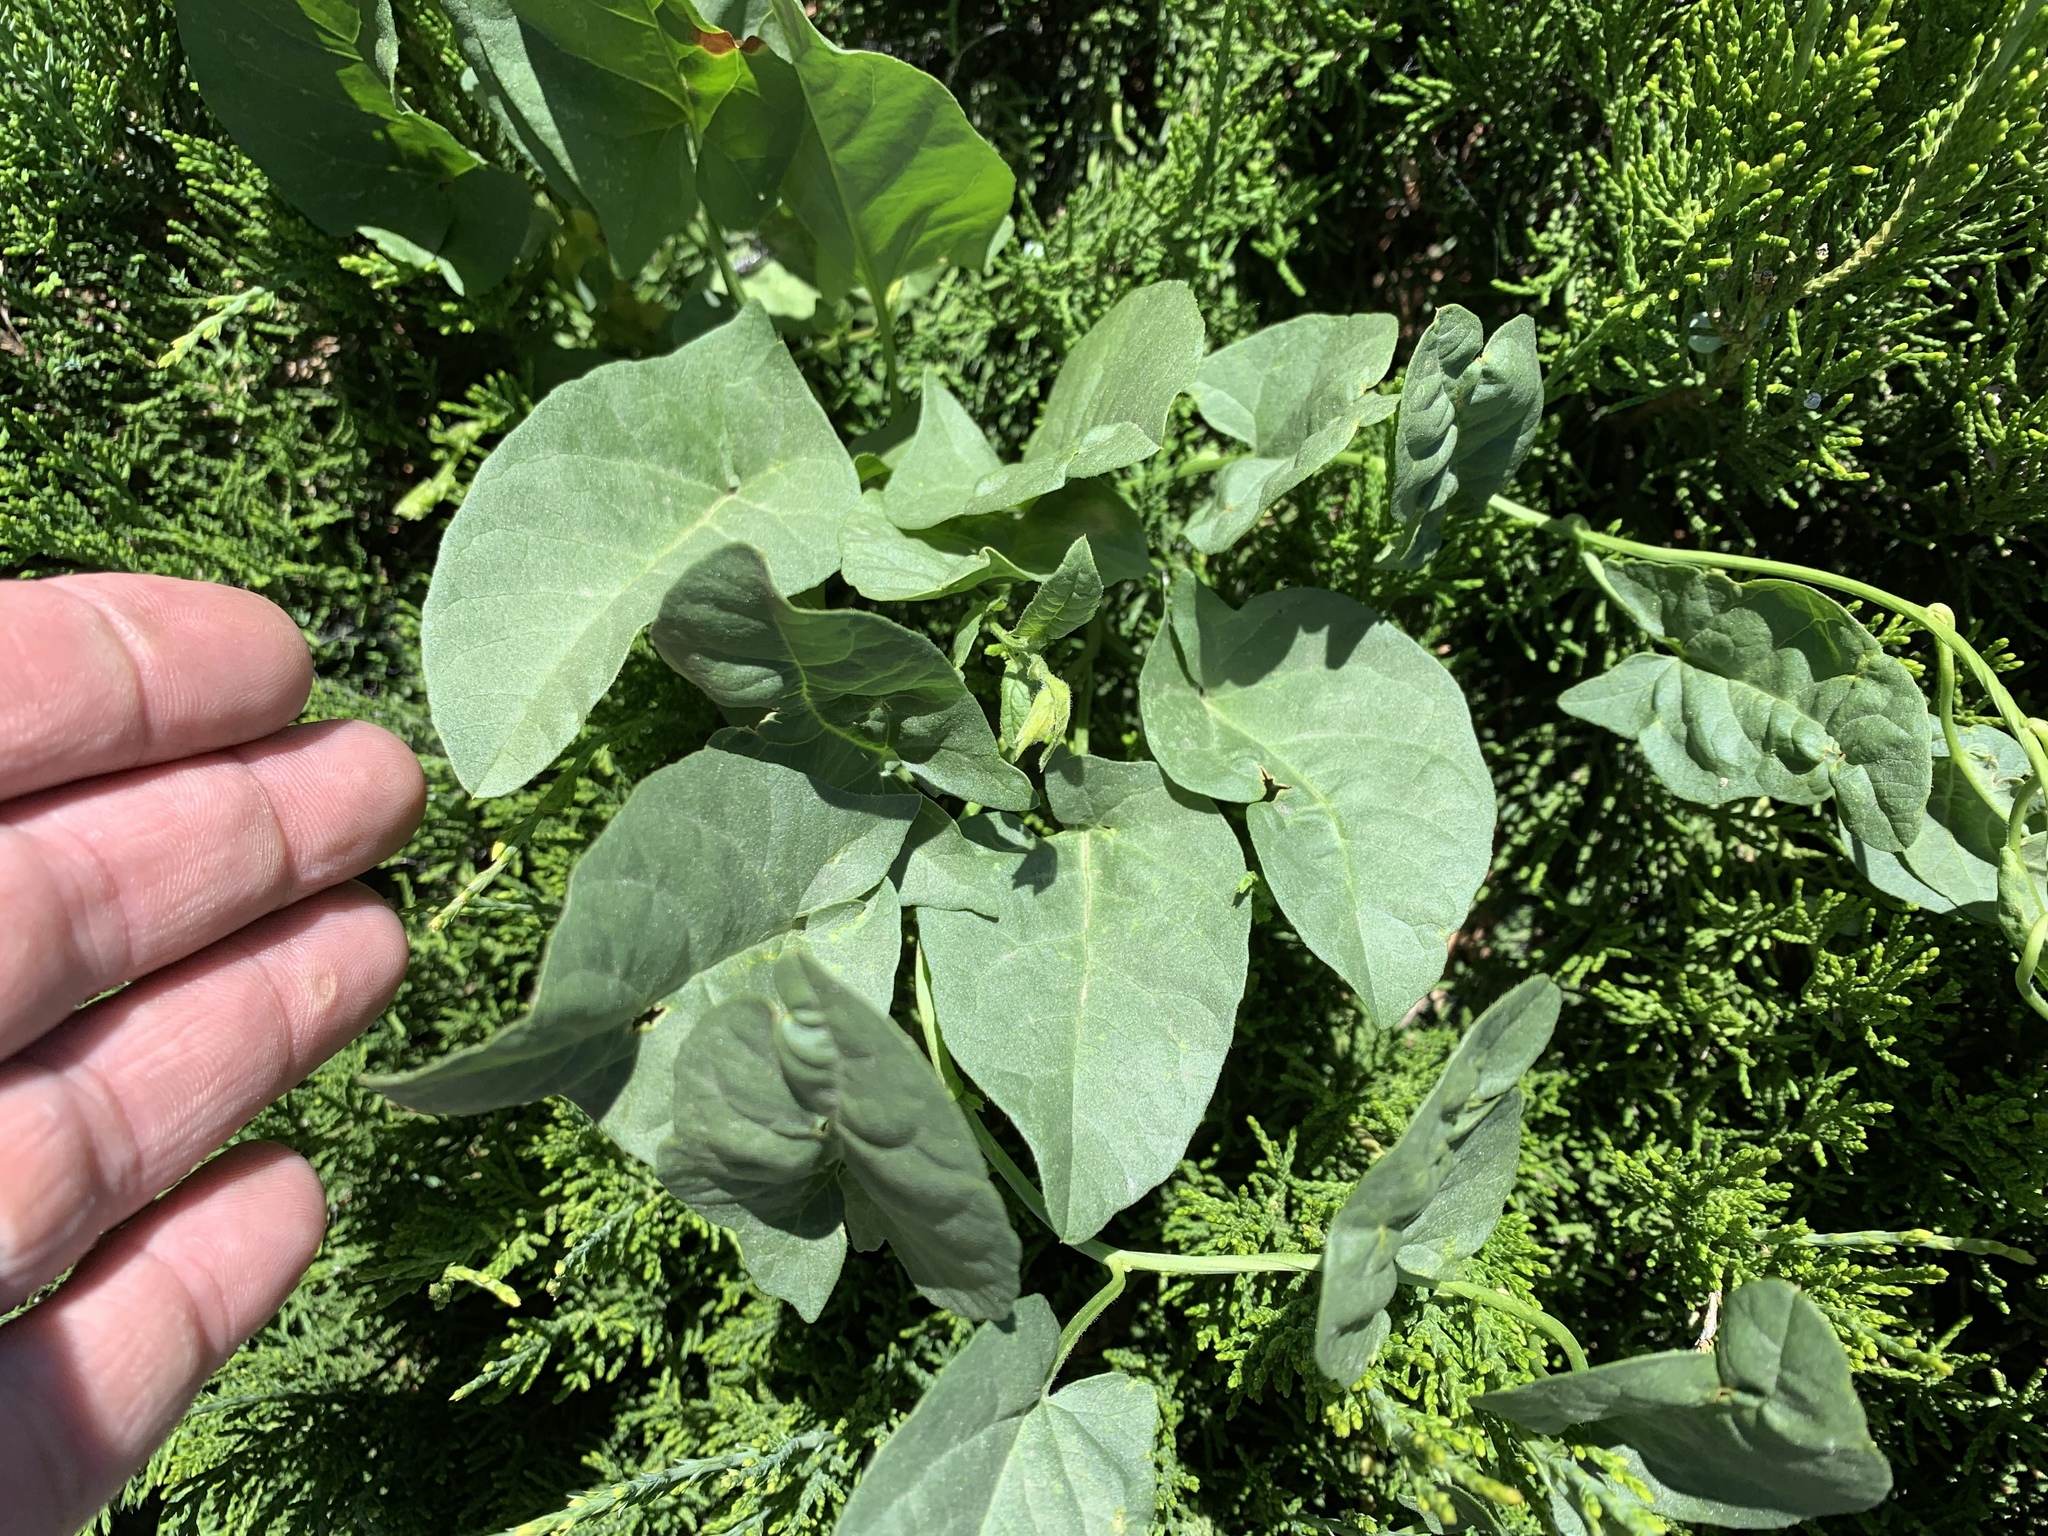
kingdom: Plantae
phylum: Tracheophyta
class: Magnoliopsida
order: Solanales
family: Convolvulaceae
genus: Convolvulus
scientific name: Convolvulus arvensis
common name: Field bindweed
